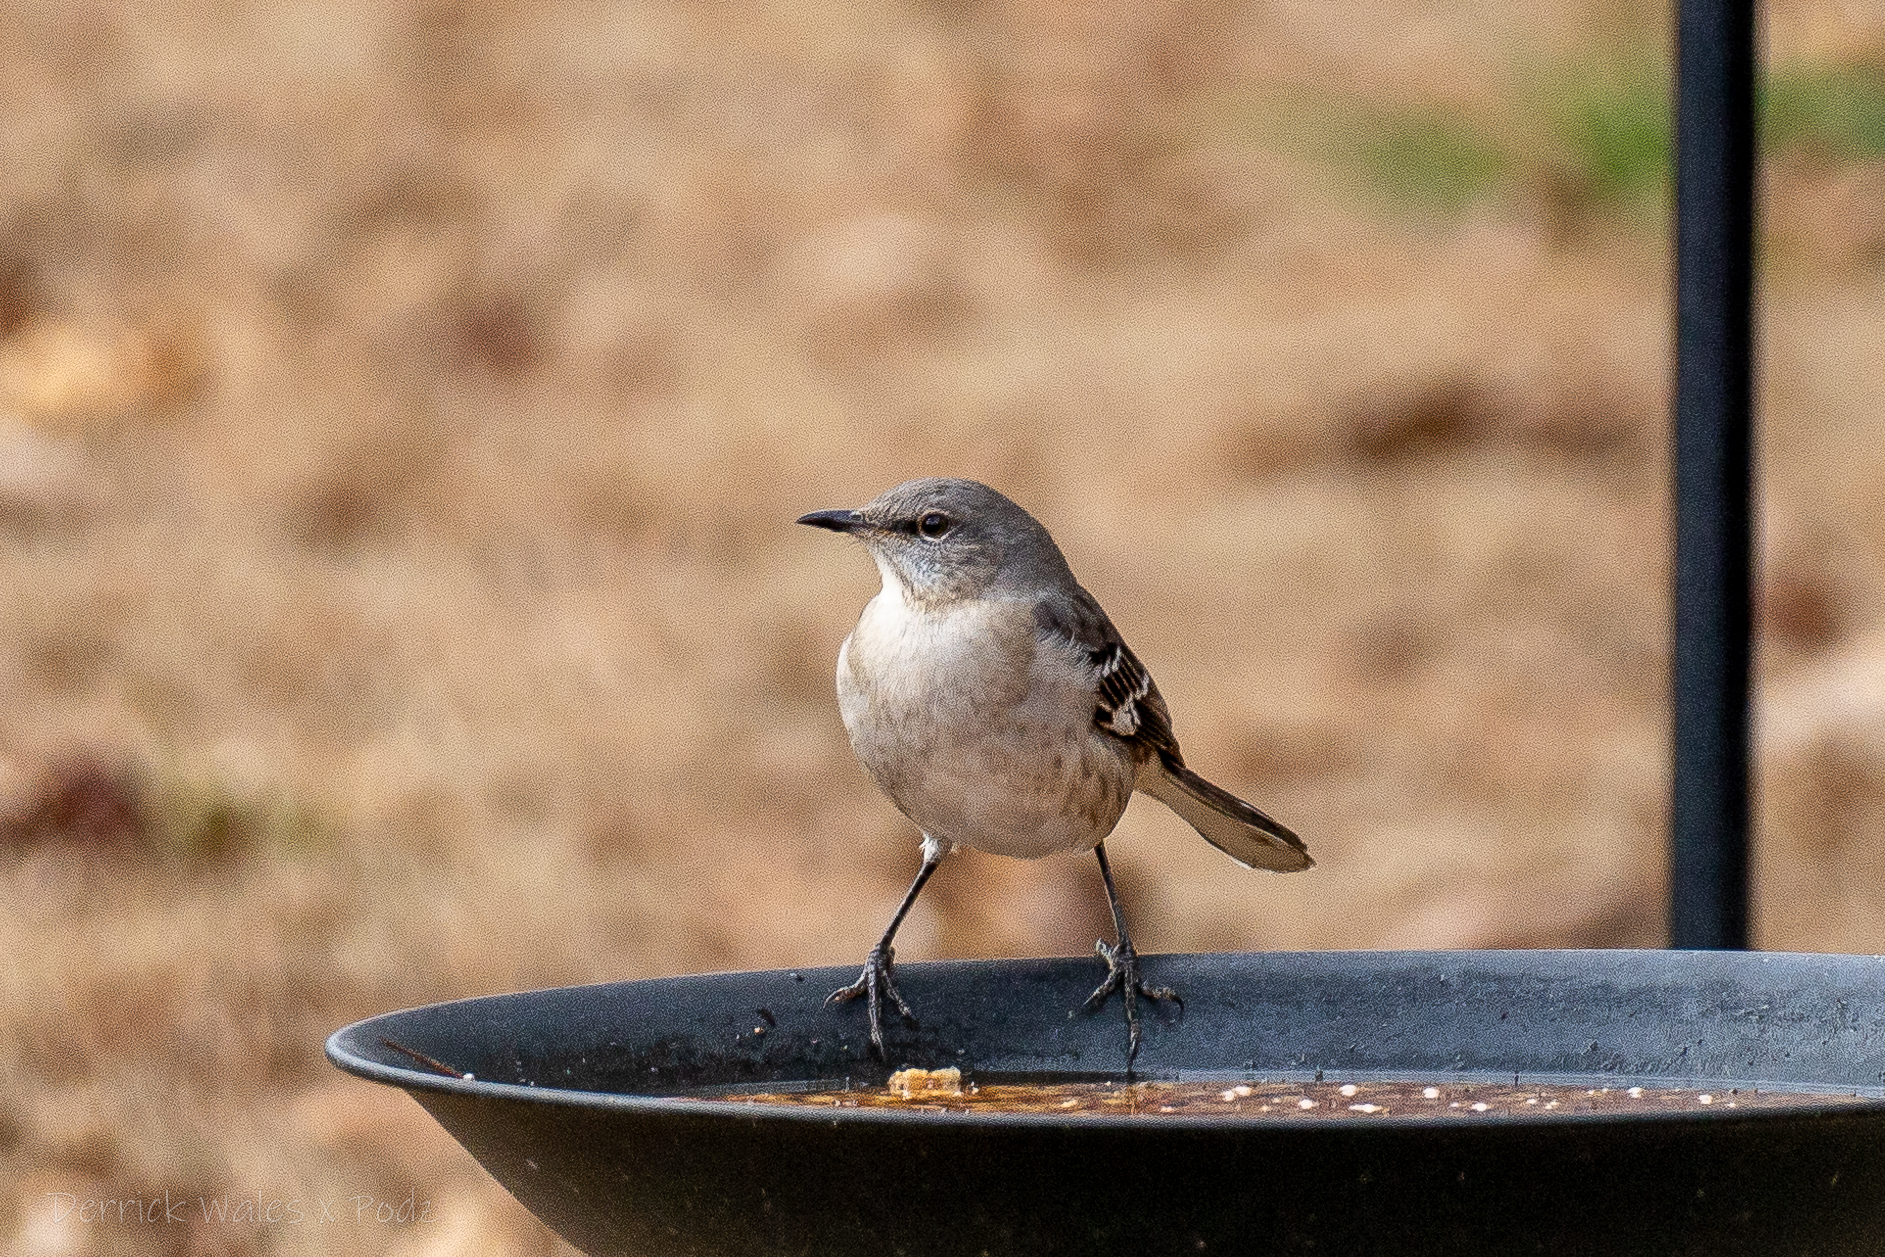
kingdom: Animalia
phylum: Chordata
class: Aves
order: Passeriformes
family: Mimidae
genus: Mimus
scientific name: Mimus polyglottos
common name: Northern mockingbird
